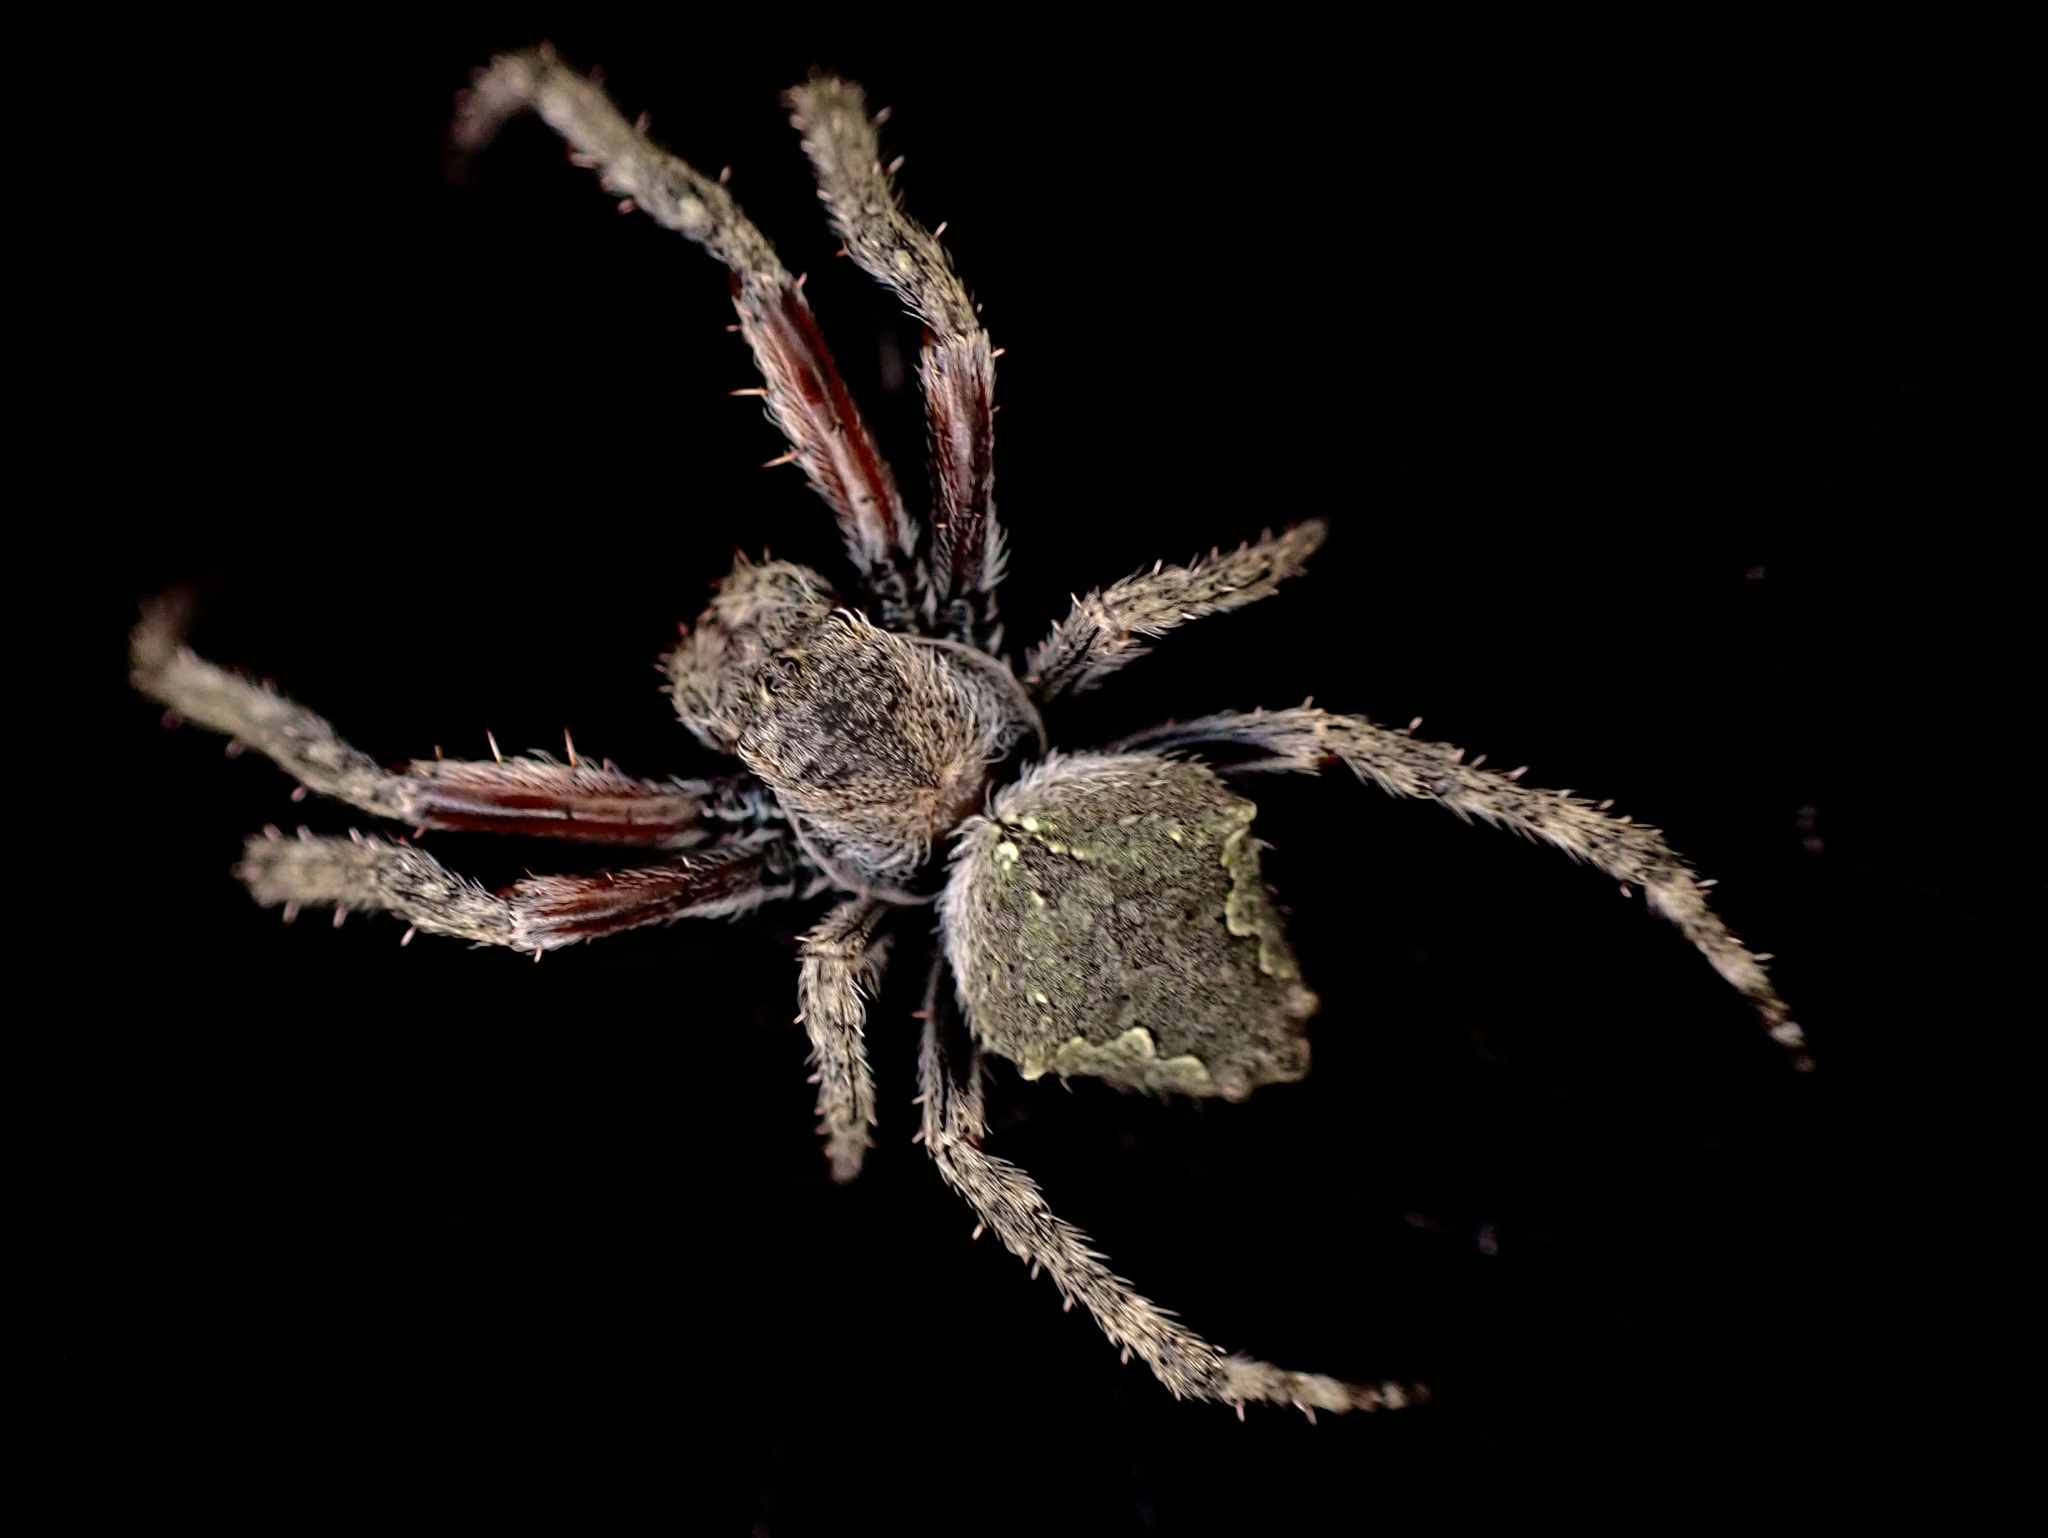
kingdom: Animalia
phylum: Arthropoda
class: Arachnida
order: Araneae
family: Araneidae
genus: Eriophora
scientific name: Eriophora pustulosa
